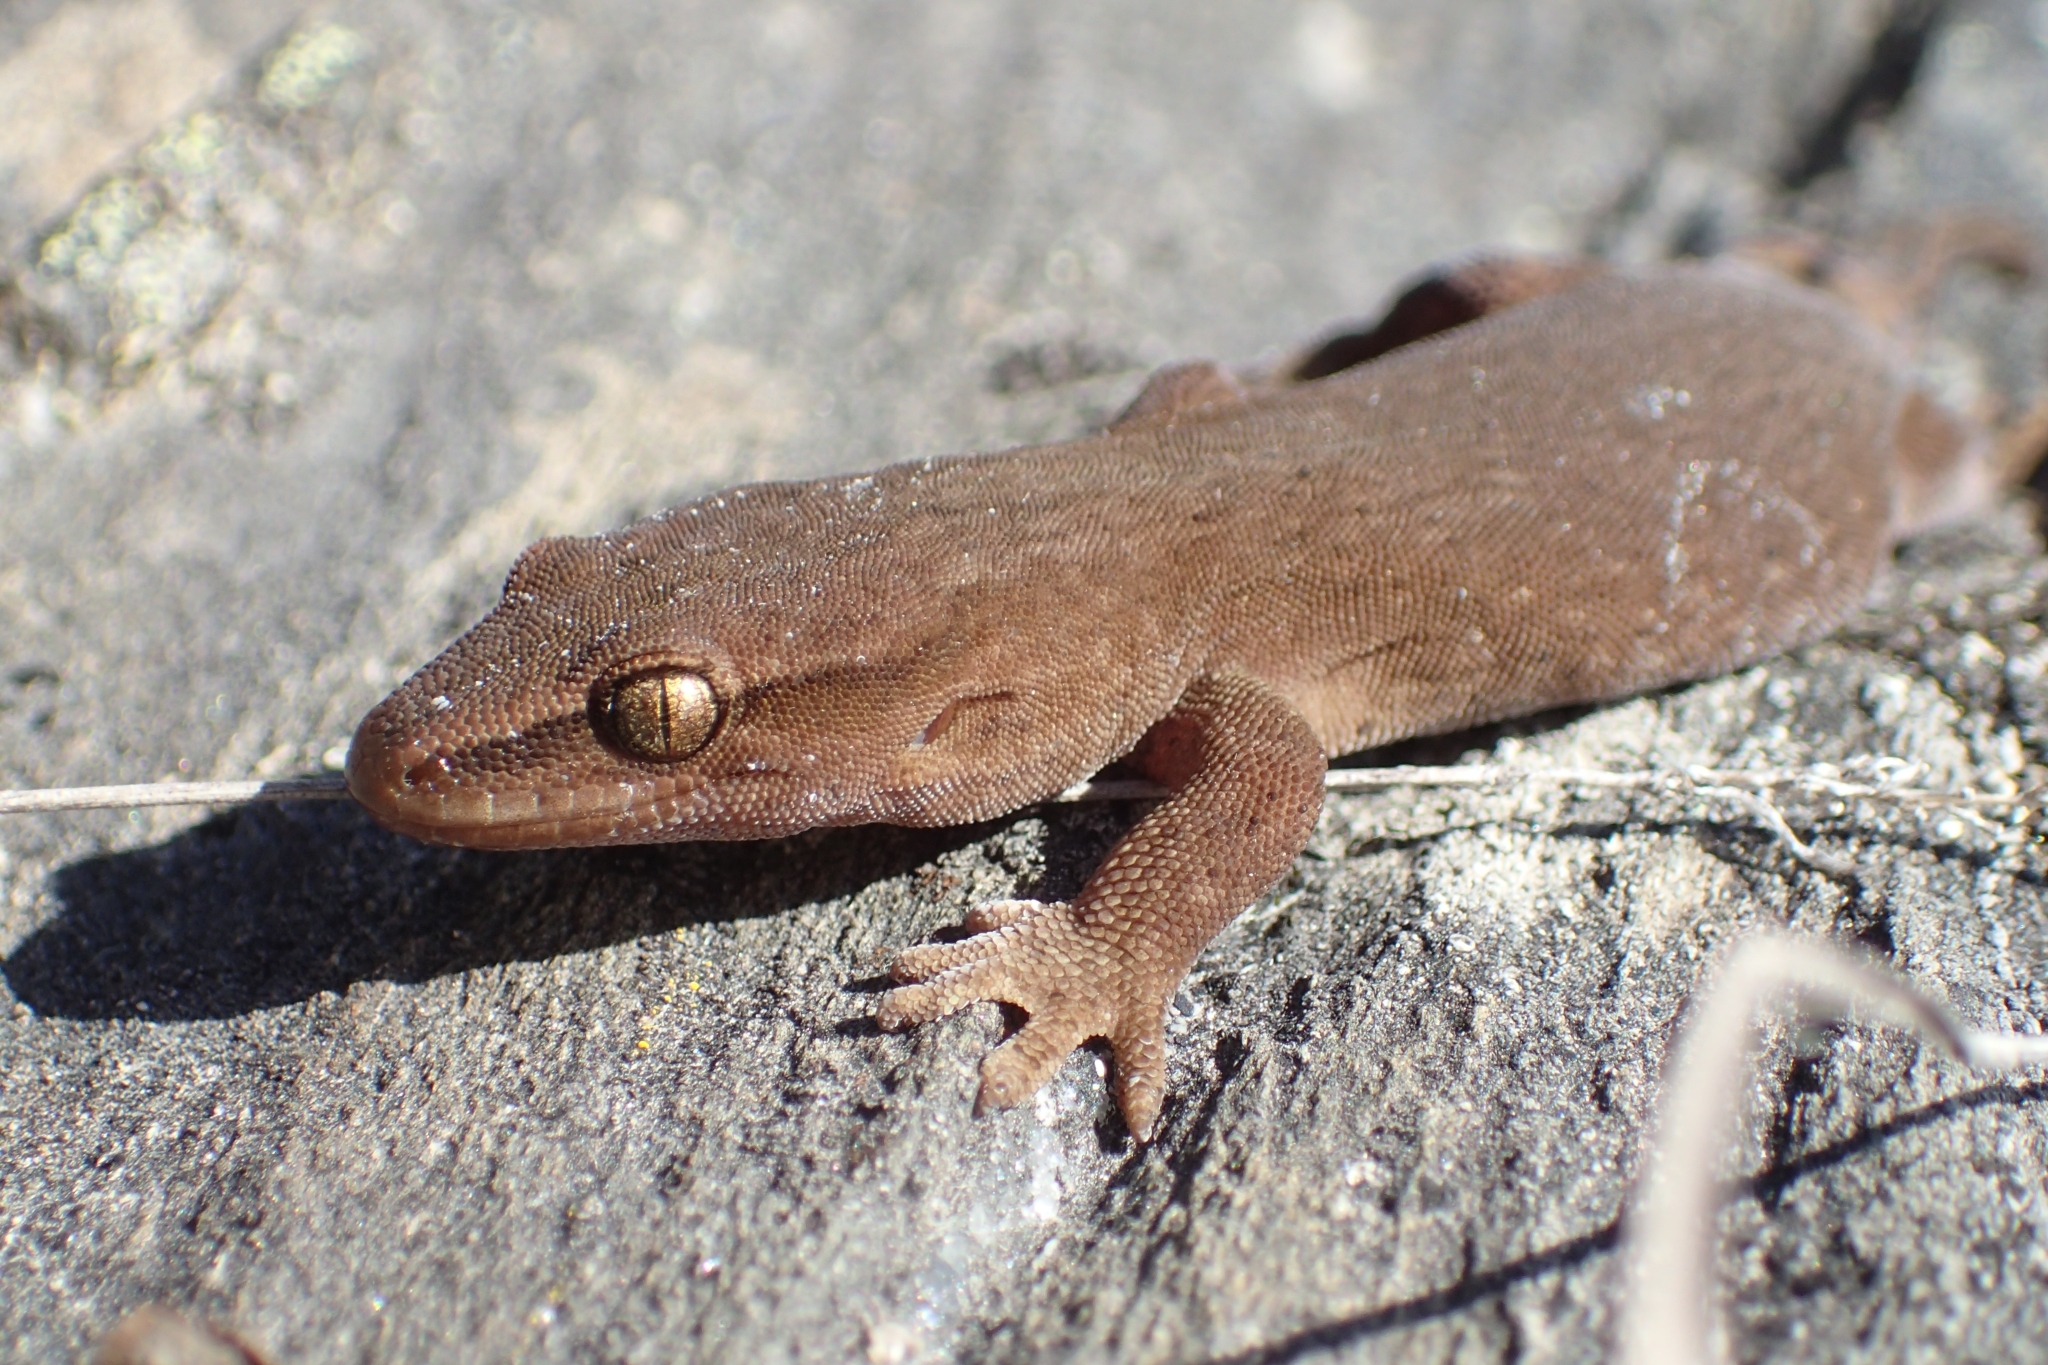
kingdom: Animalia
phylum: Chordata
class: Squamata
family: Diplodactylidae
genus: Woodworthia
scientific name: Woodworthia
